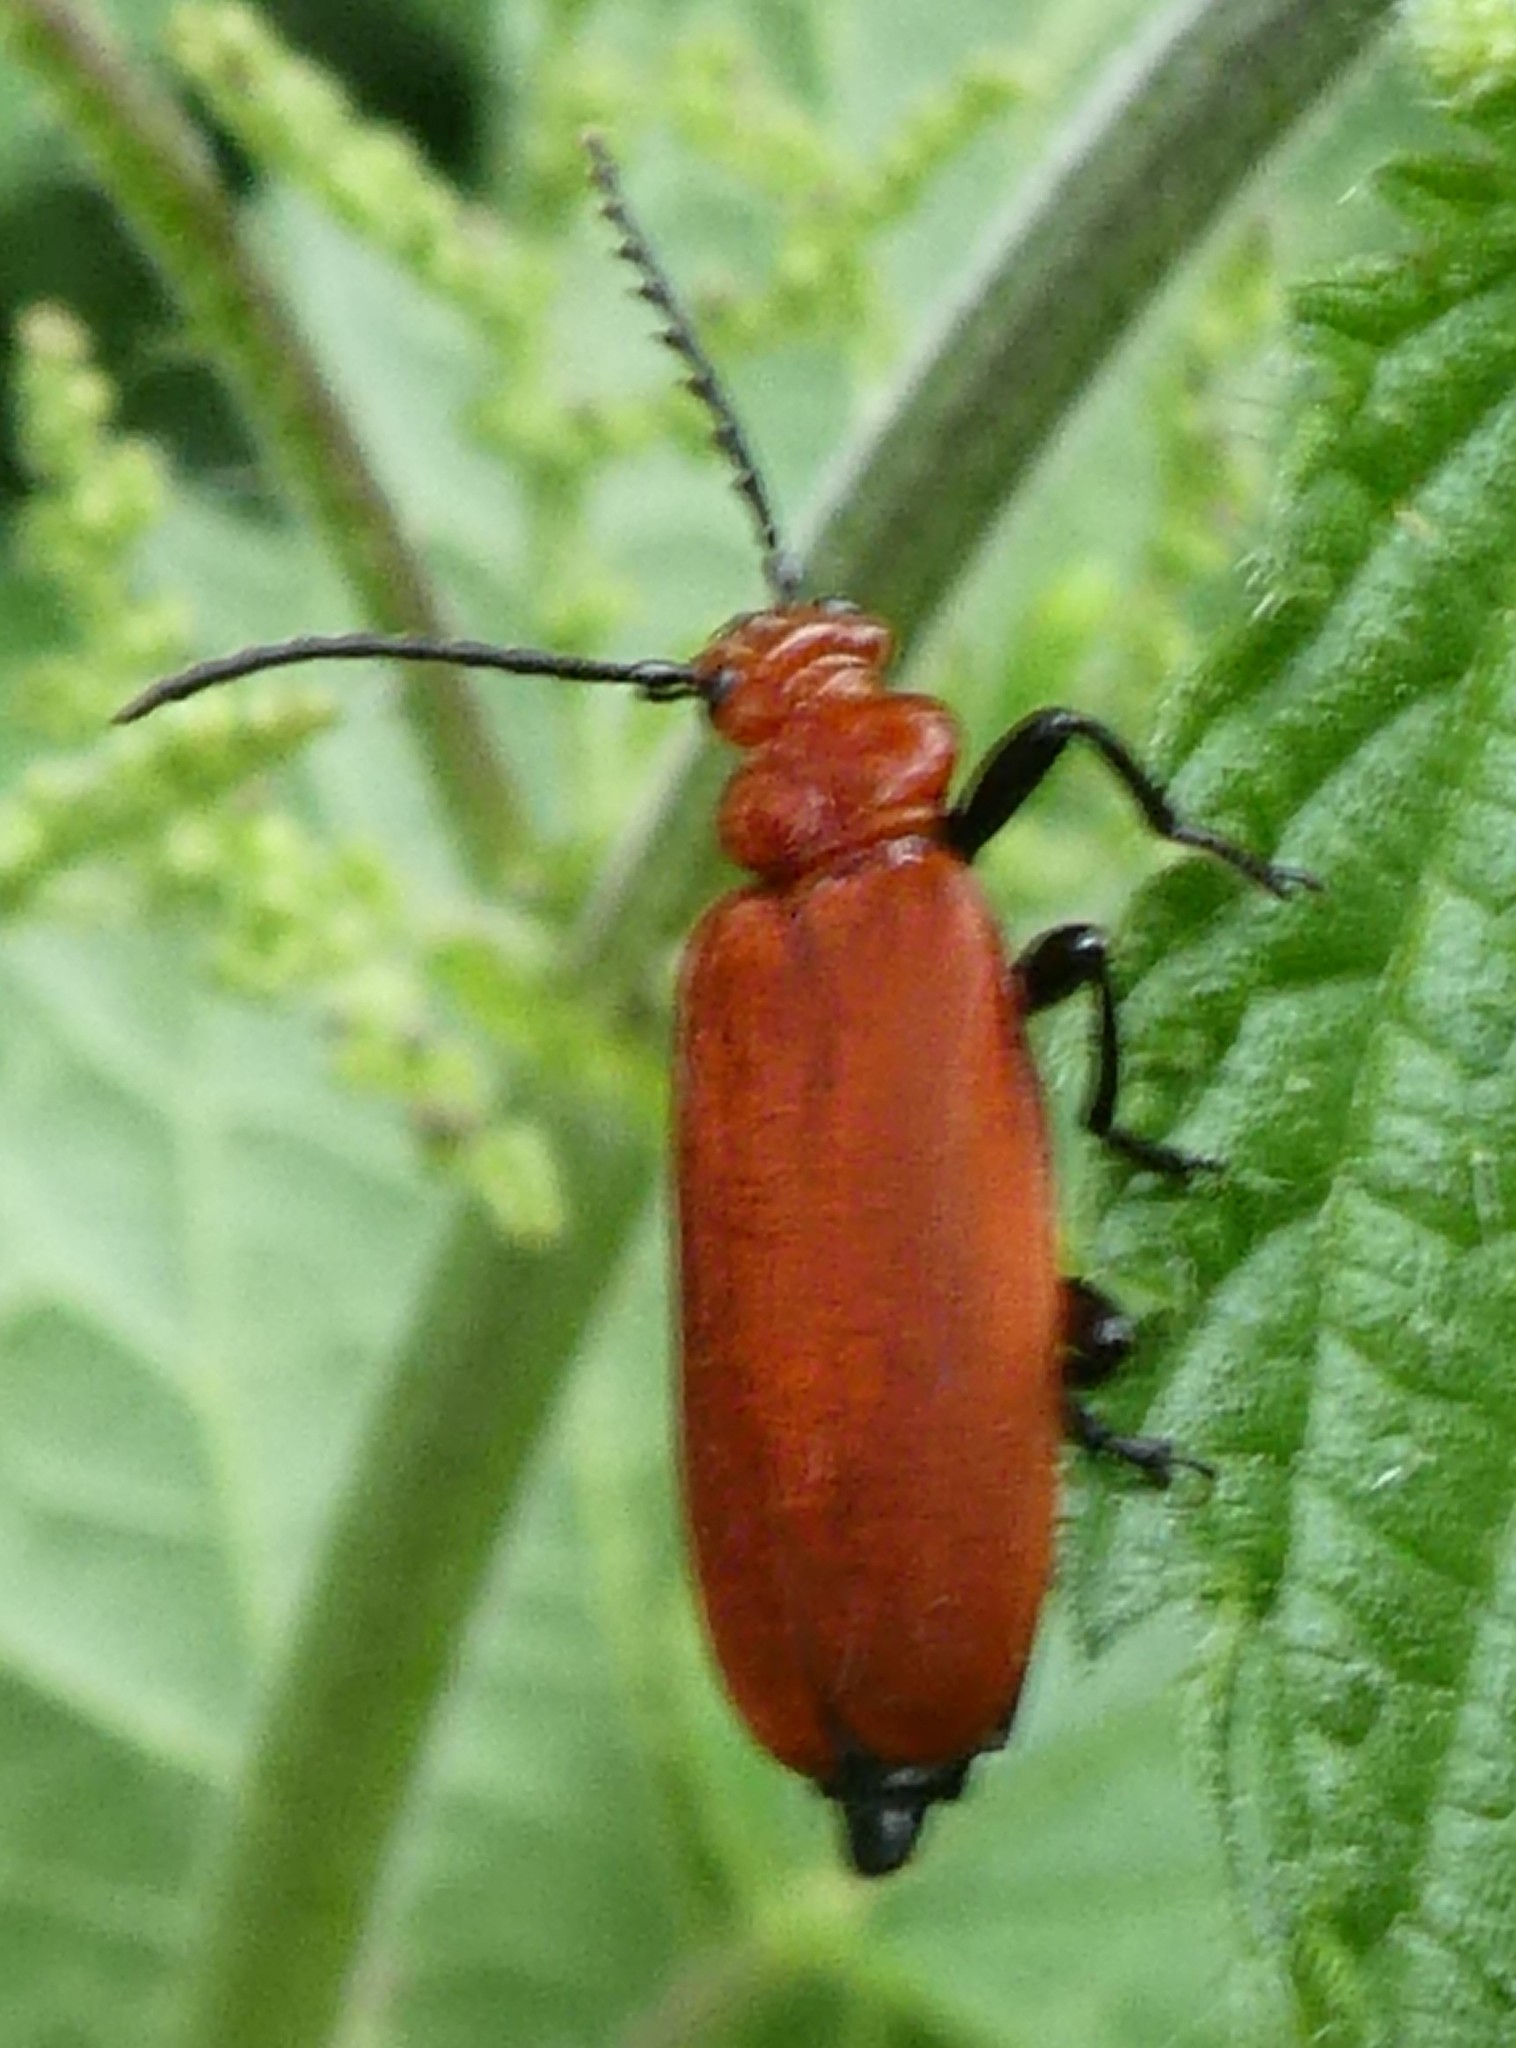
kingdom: Animalia
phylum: Arthropoda
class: Insecta
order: Coleoptera
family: Pyrochroidae
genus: Pyrochroa
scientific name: Pyrochroa serraticornis
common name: Red-headed cardinal beetle
